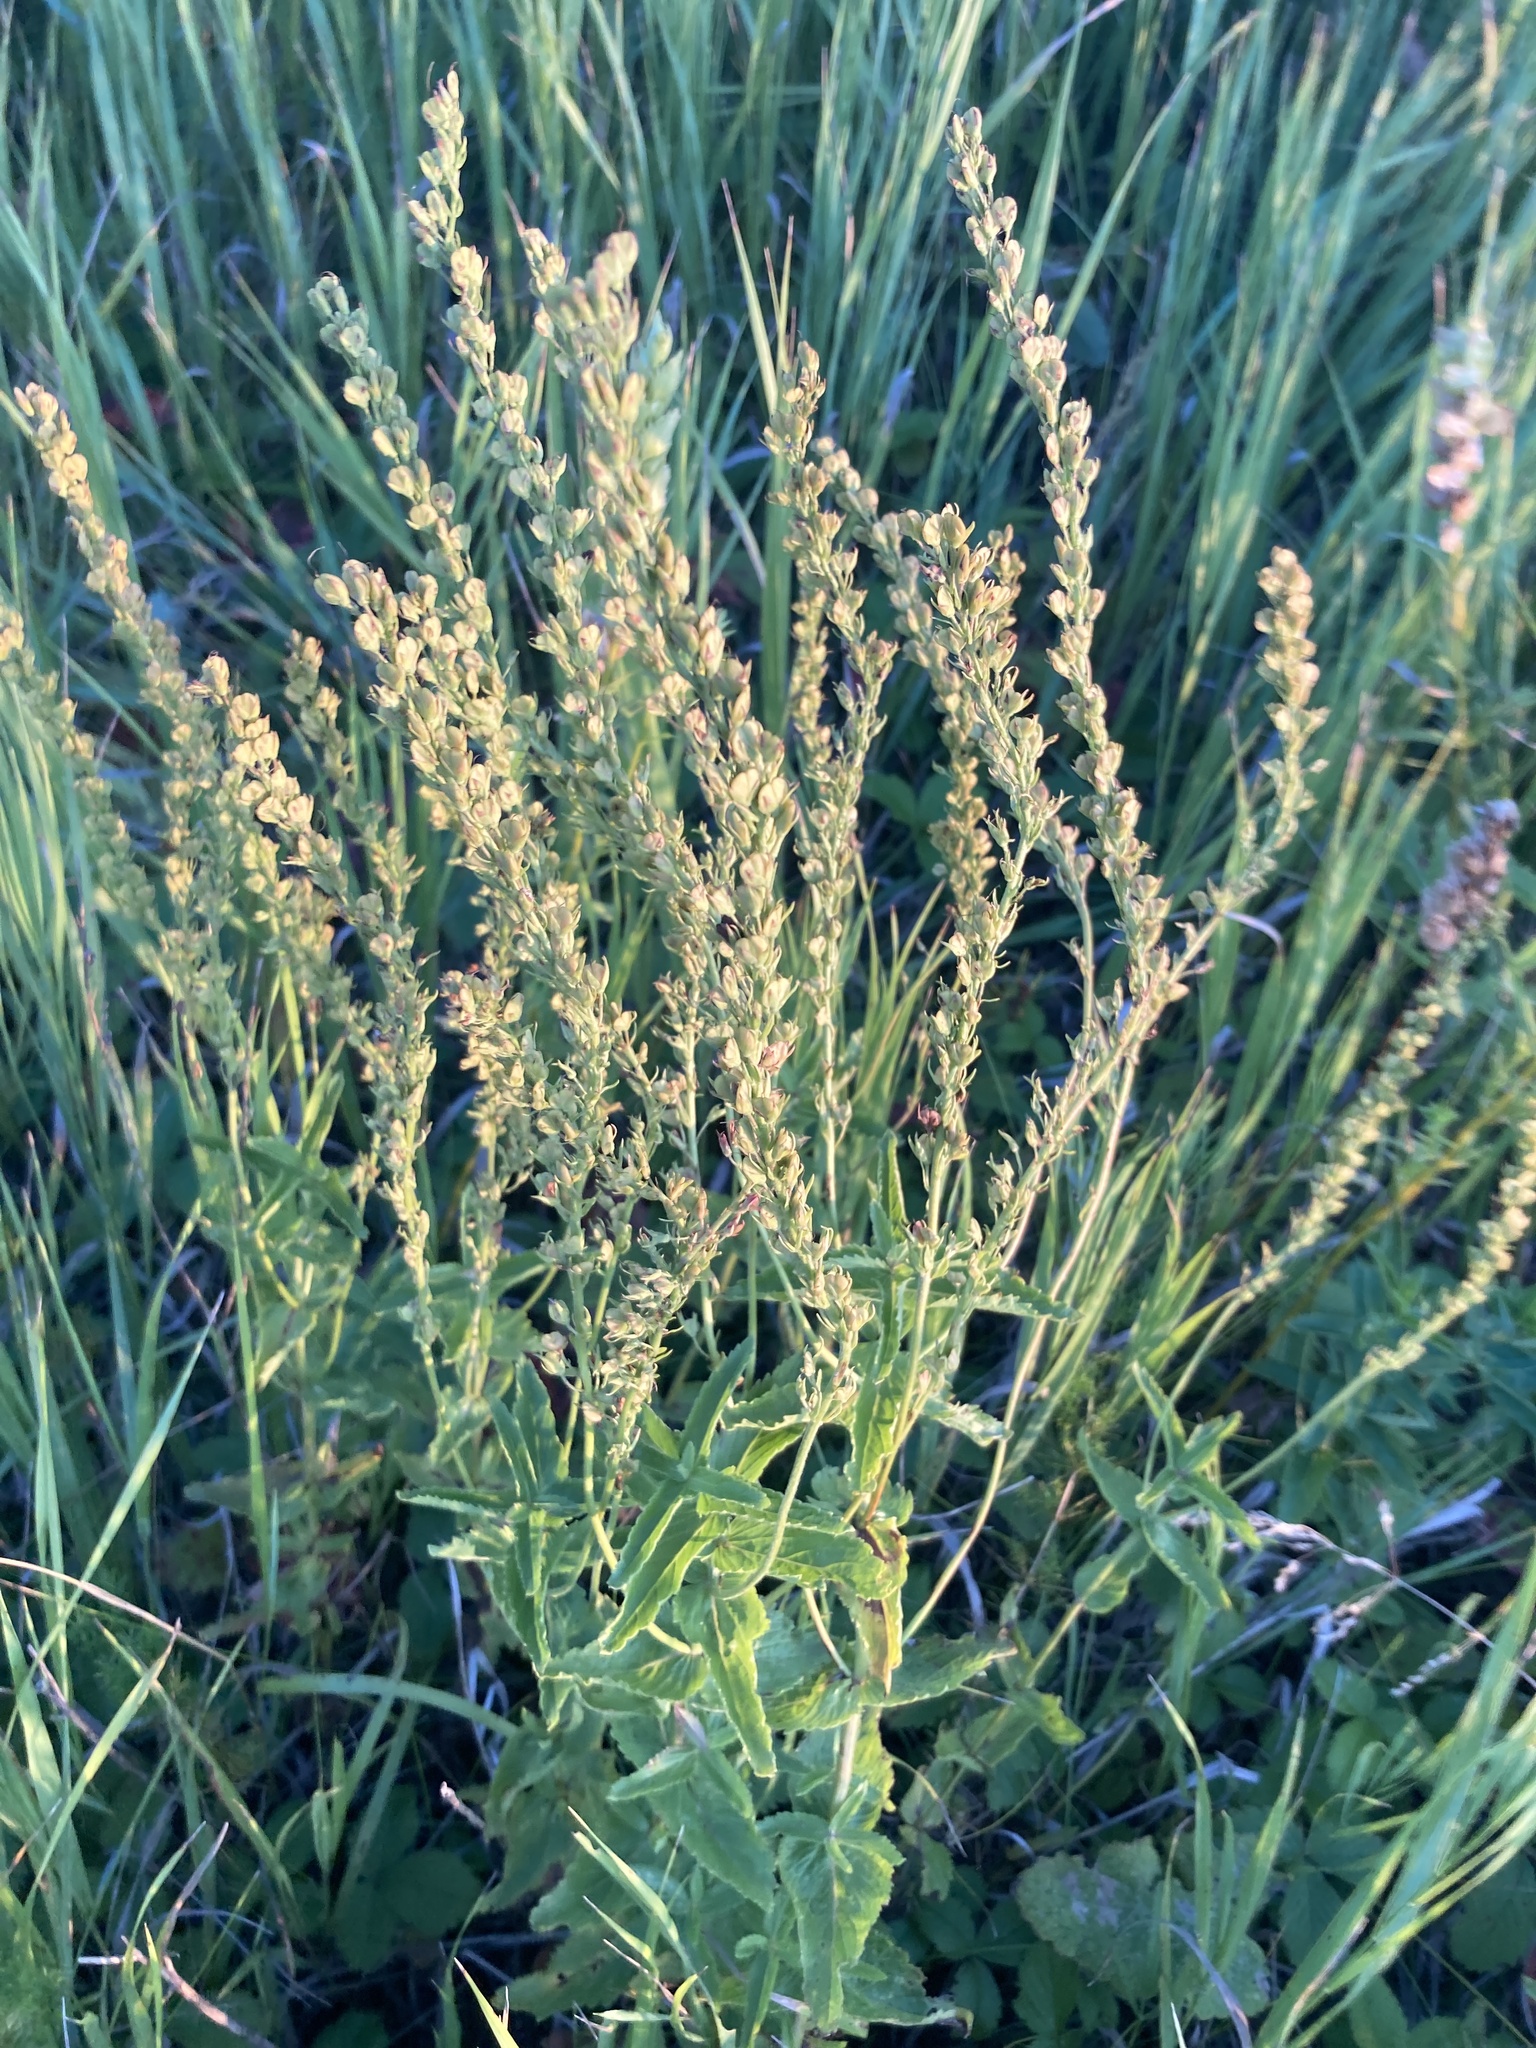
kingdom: Plantae
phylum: Tracheophyta
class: Magnoliopsida
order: Lamiales
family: Plantaginaceae
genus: Veronica
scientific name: Veronica teucrium
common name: Large speedwell
